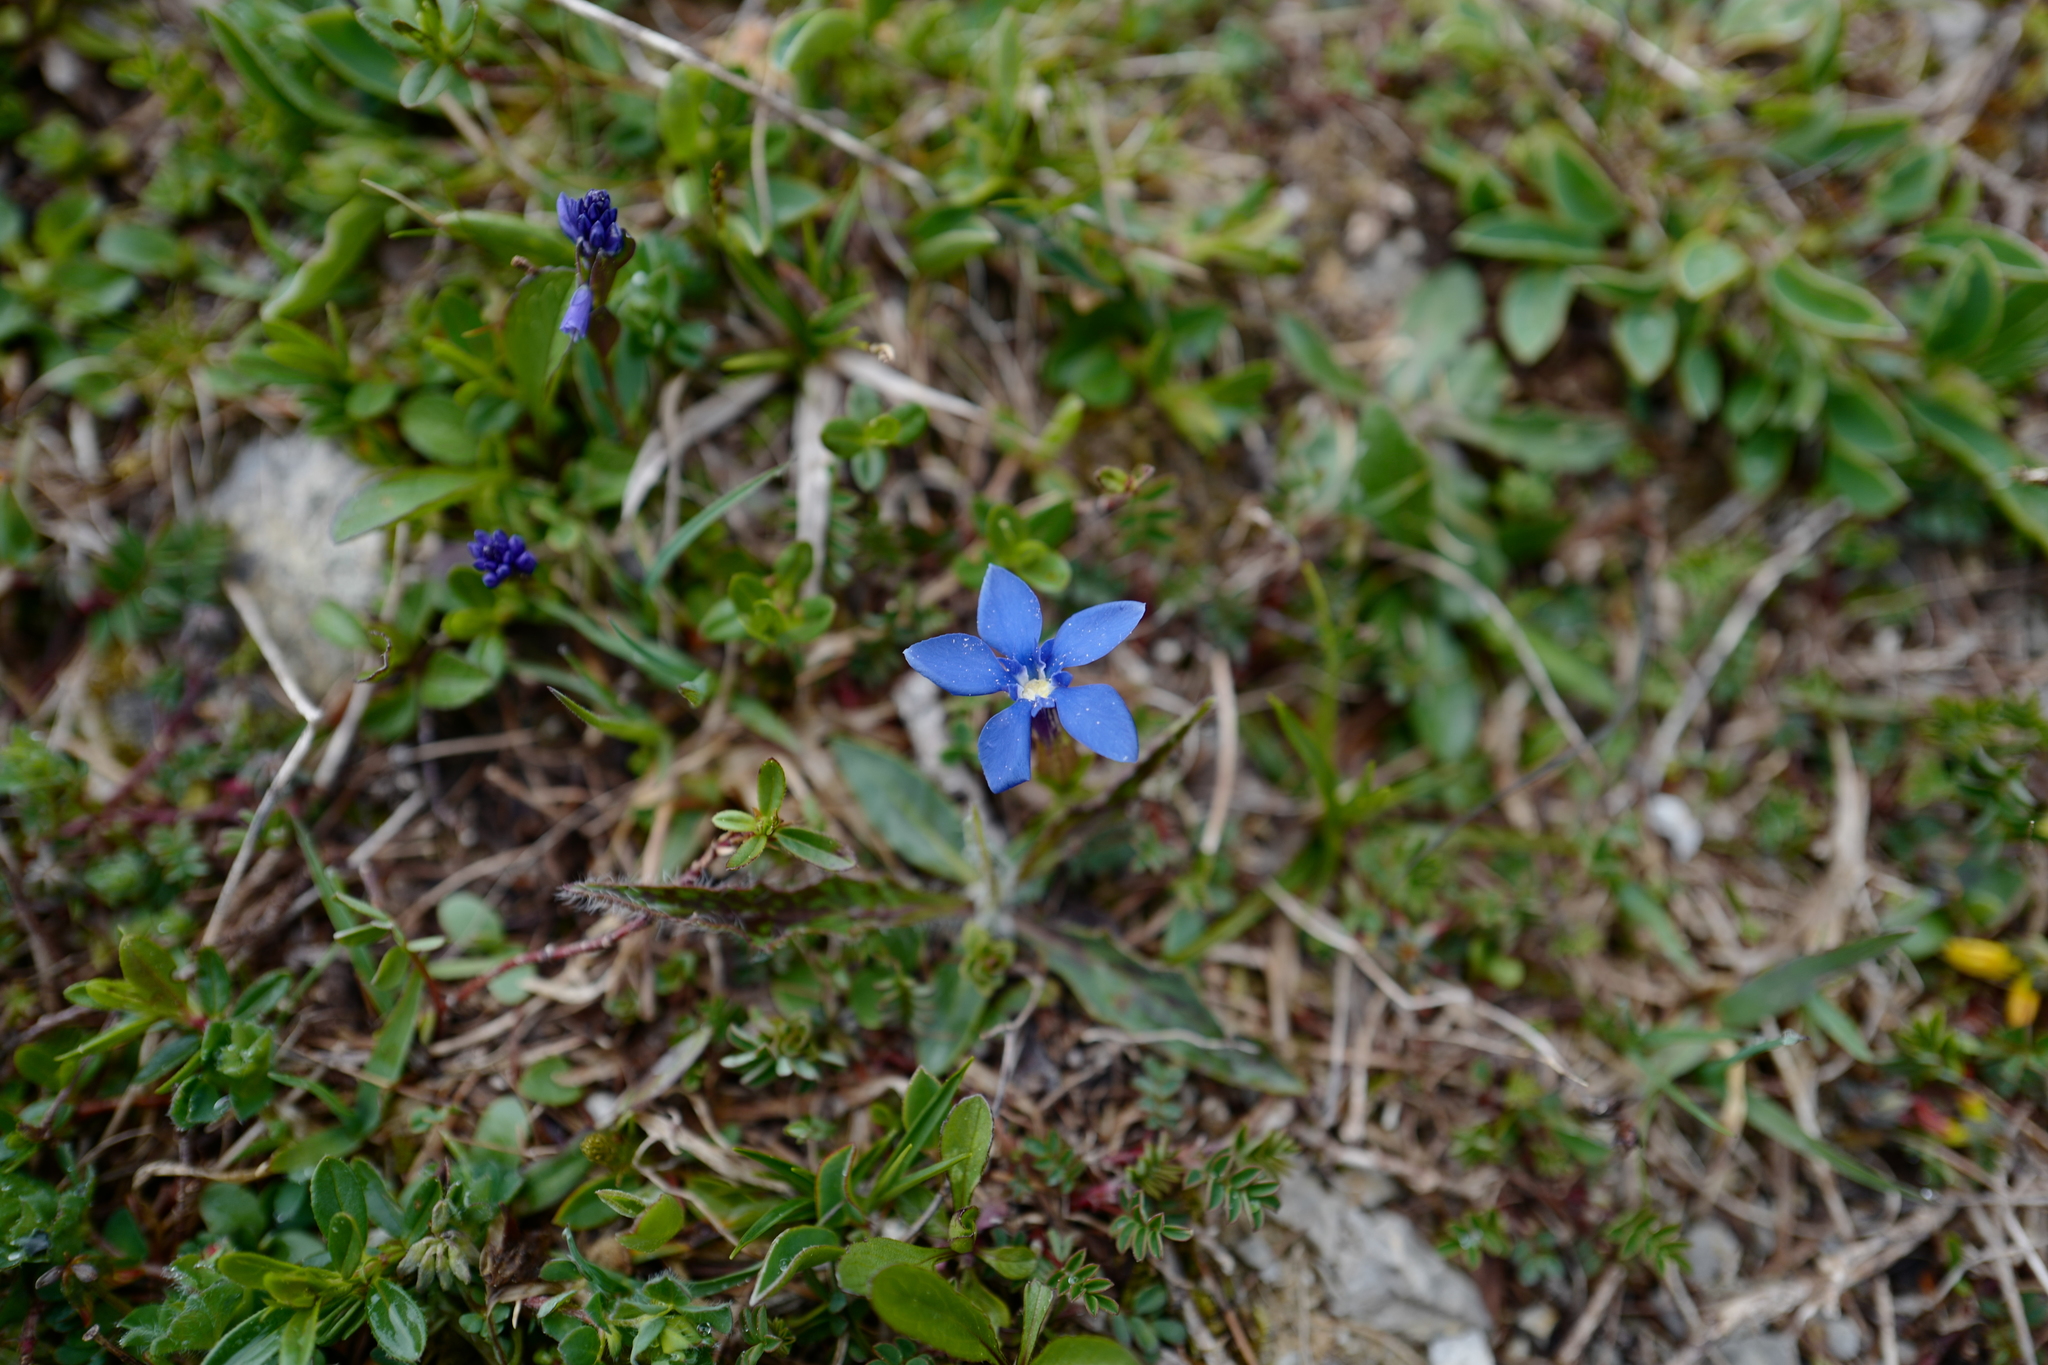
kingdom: Plantae
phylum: Tracheophyta
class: Magnoliopsida
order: Gentianales
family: Gentianaceae
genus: Gentiana
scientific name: Gentiana
